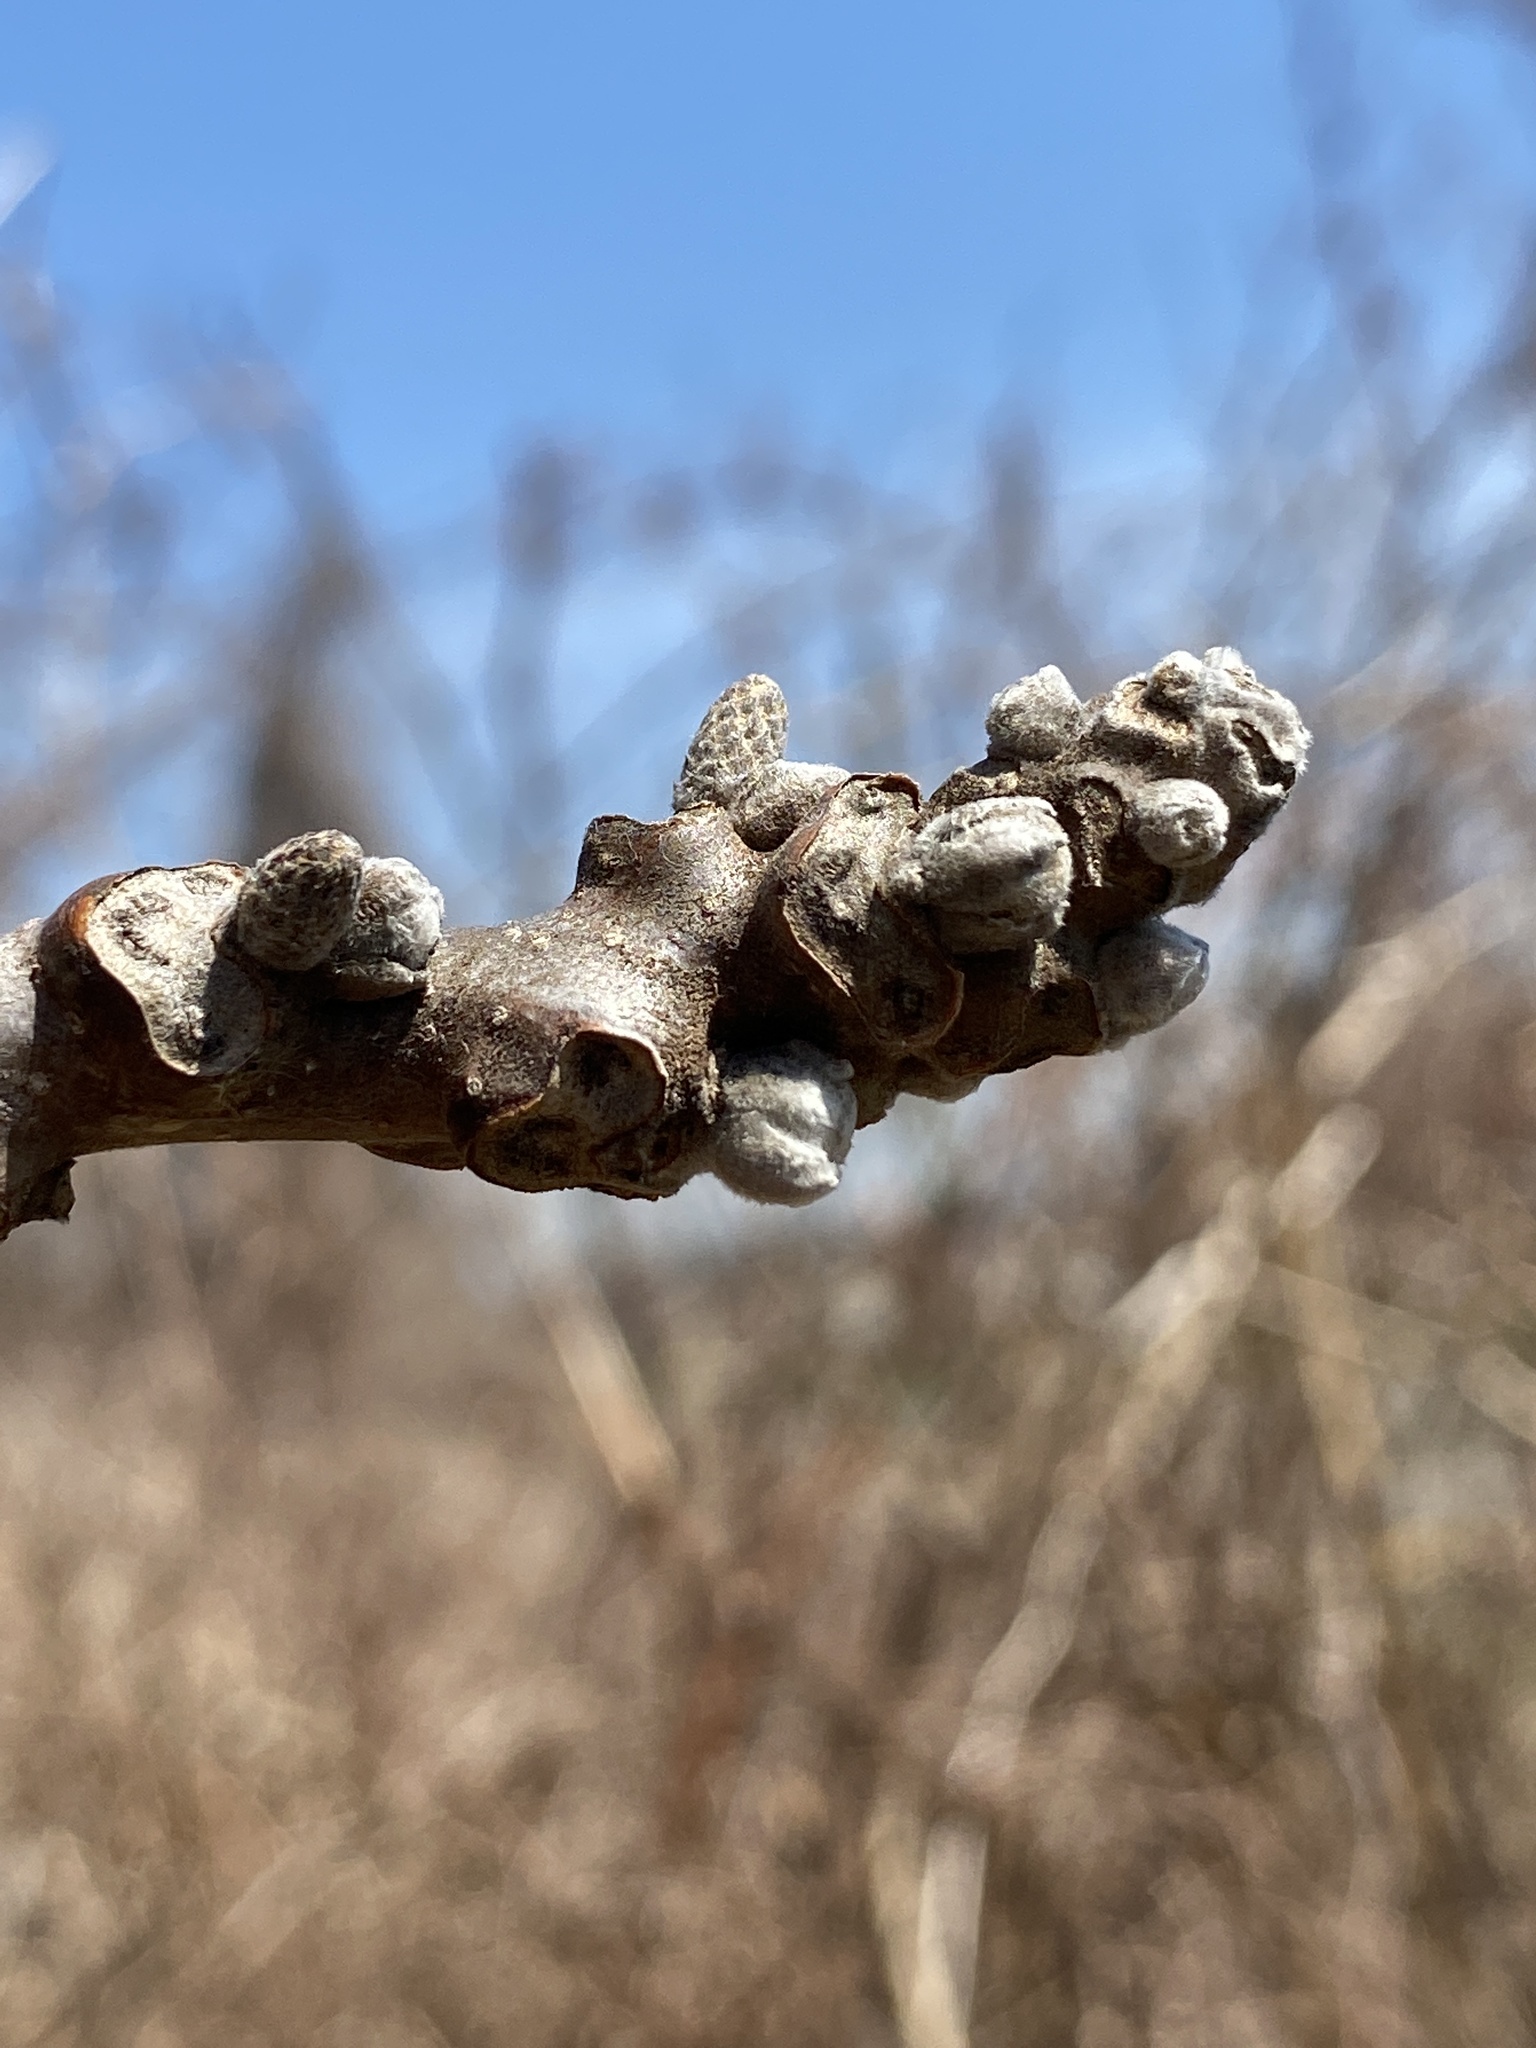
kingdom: Plantae
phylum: Tracheophyta
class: Magnoliopsida
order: Fagales
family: Juglandaceae
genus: Juglans
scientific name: Juglans nigra
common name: Black walnut
